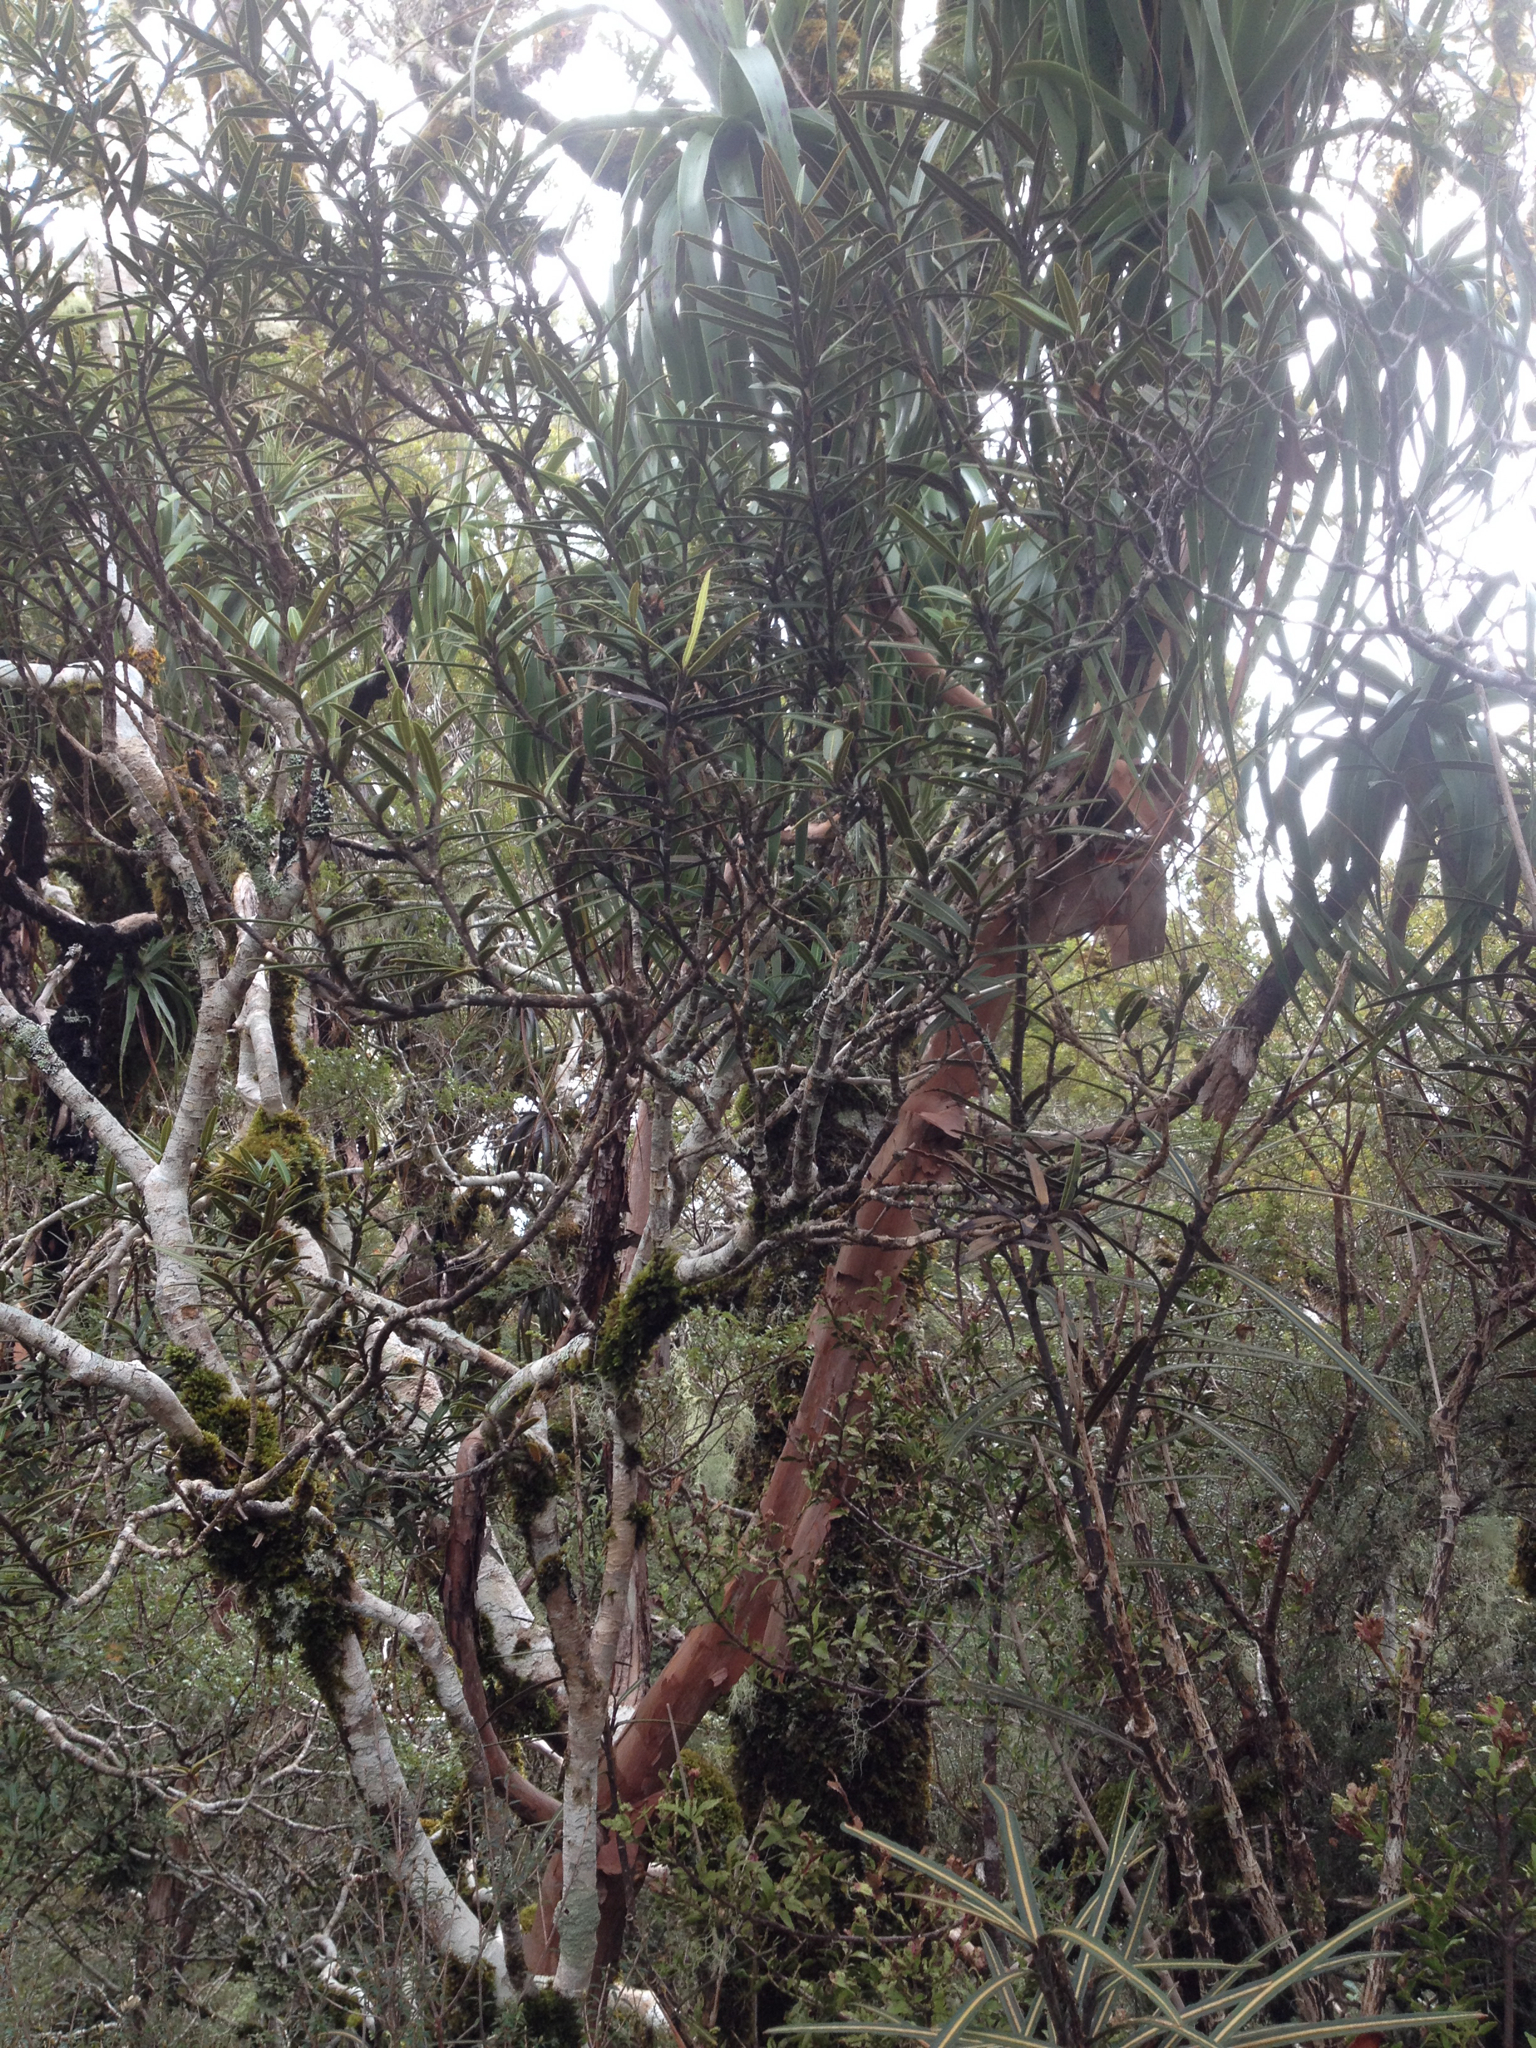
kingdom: Plantae
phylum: Tracheophyta
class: Magnoliopsida
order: Apiales
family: Araliaceae
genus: Pseudopanax
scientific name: Pseudopanax linearis
